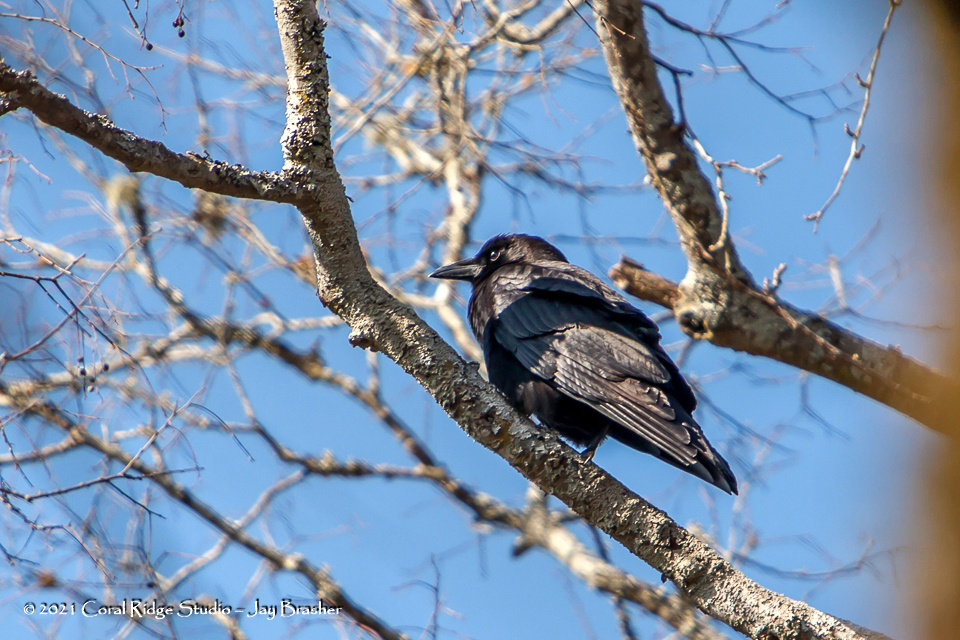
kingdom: Animalia
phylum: Chordata
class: Aves
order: Passeriformes
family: Corvidae
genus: Corvus
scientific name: Corvus brachyrhynchos
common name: American crow
